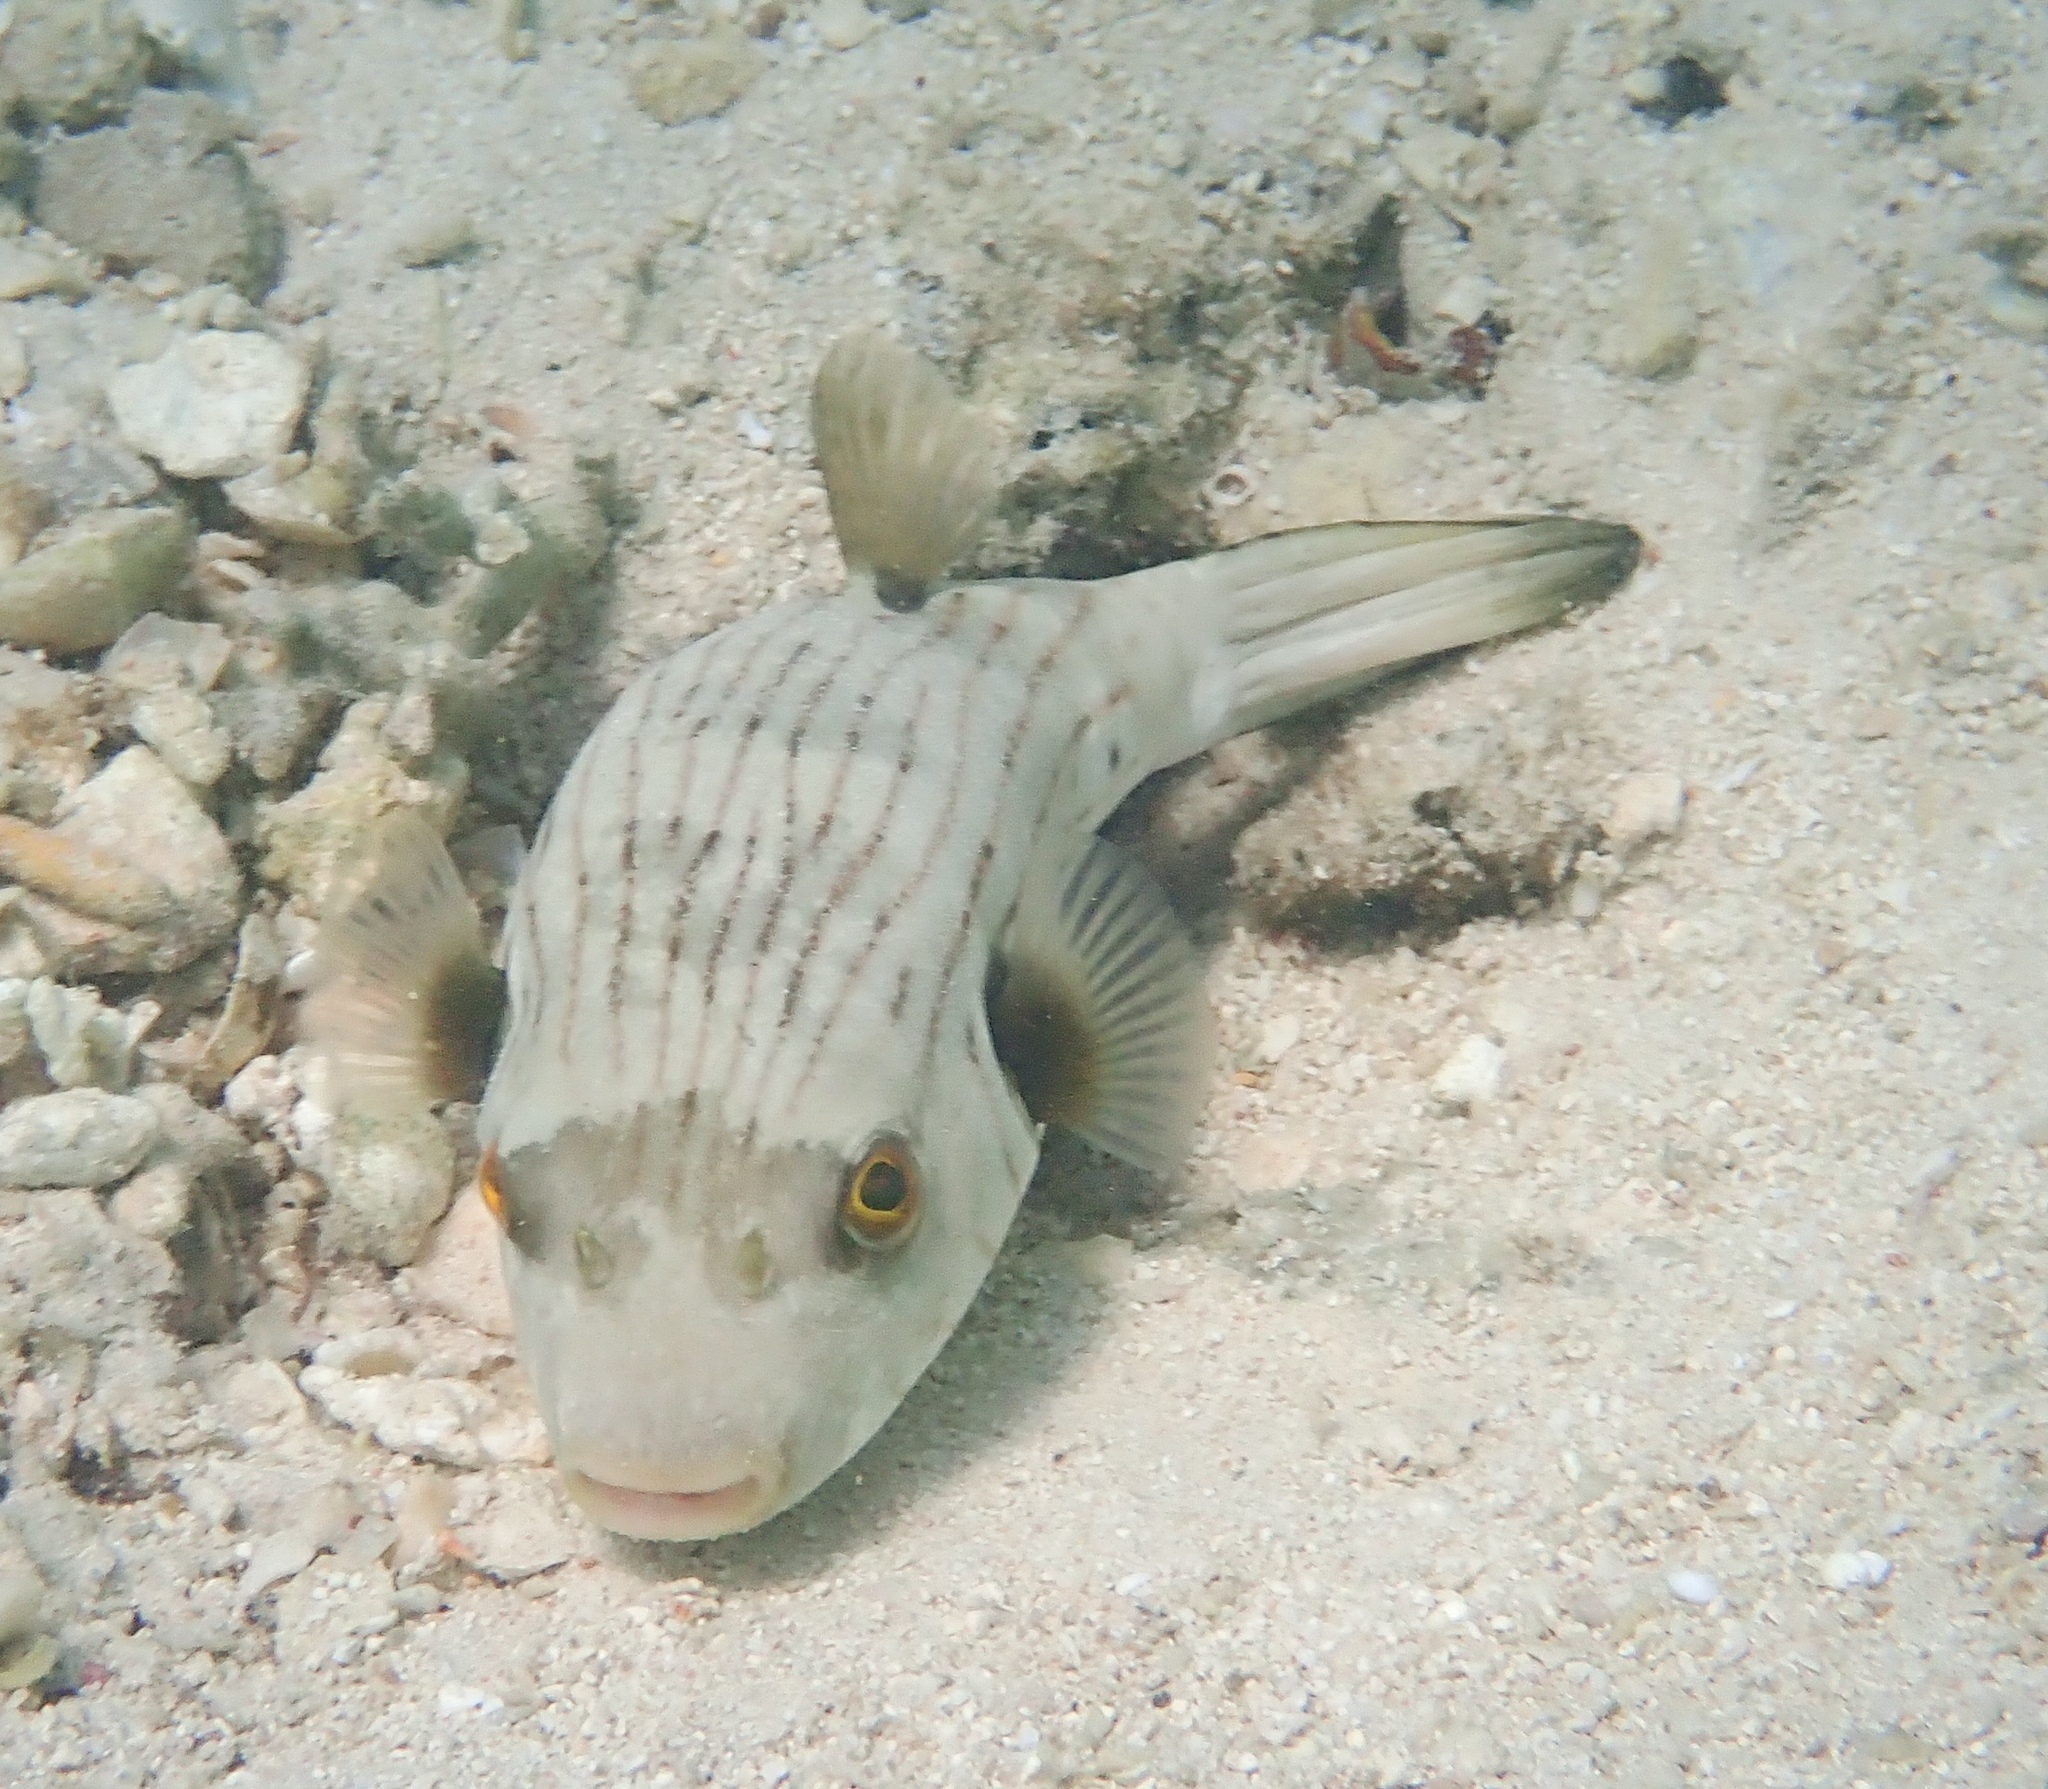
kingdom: Animalia
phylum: Chordata
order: Tetraodontiformes
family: Tetraodontidae
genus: Arothron
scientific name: Arothron manilensis
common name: Narrow-lined puffer
